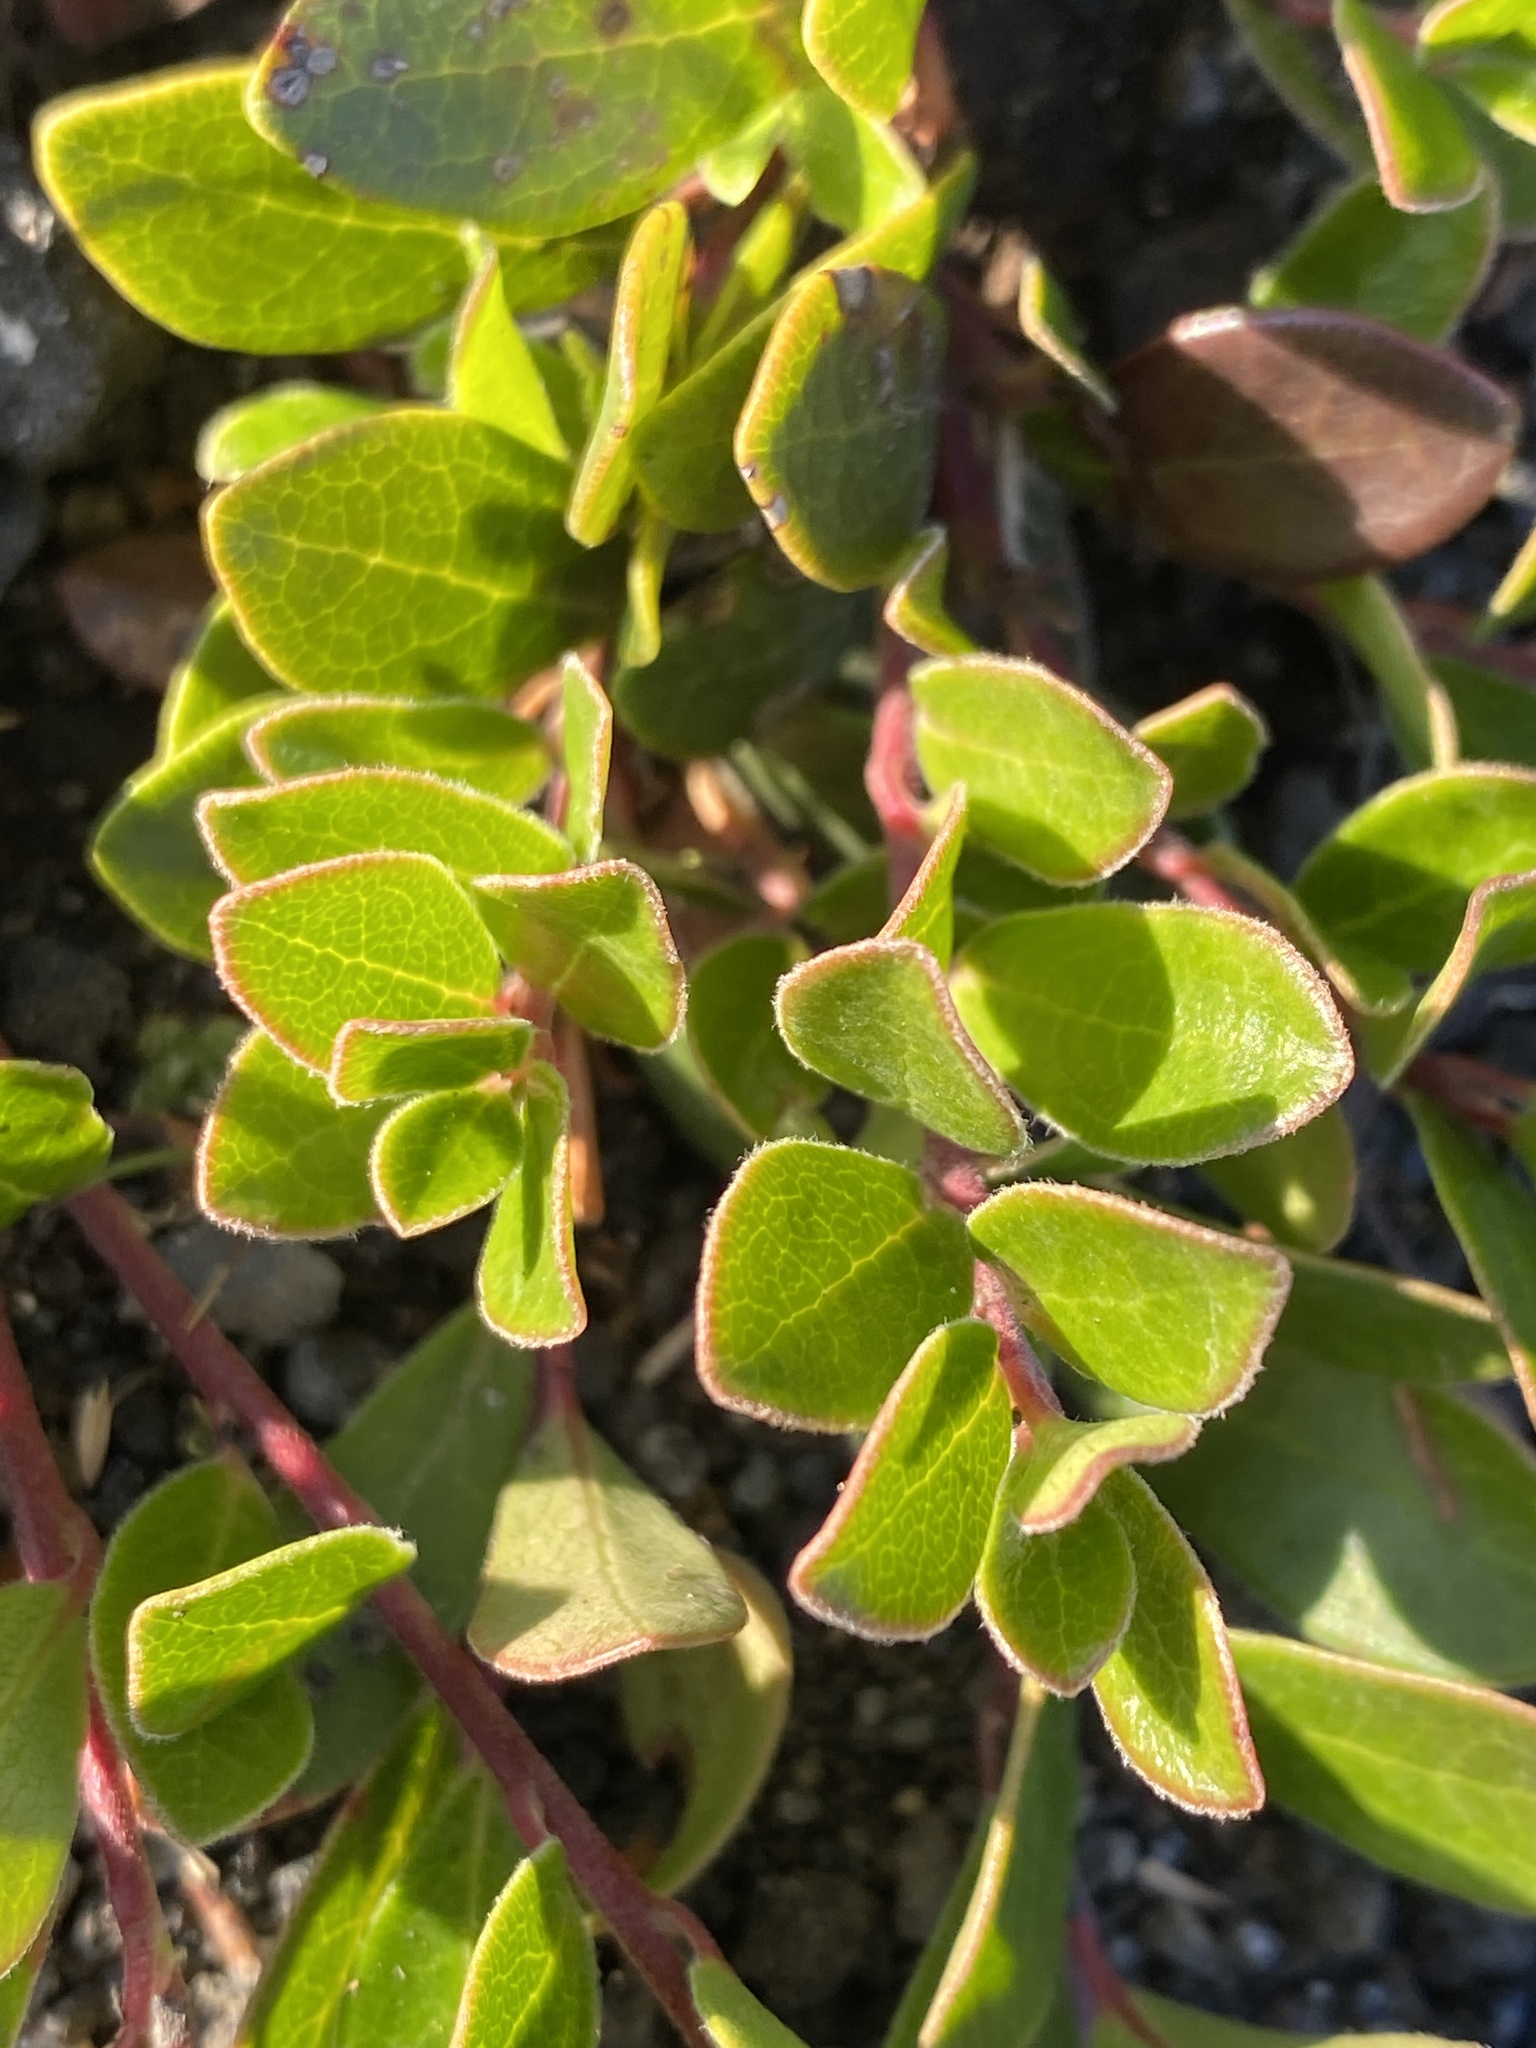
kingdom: Plantae
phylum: Tracheophyta
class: Magnoliopsida
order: Ericales
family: Ericaceae
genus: Arctostaphylos
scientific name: Arctostaphylos uva-ursi
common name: Bearberry
